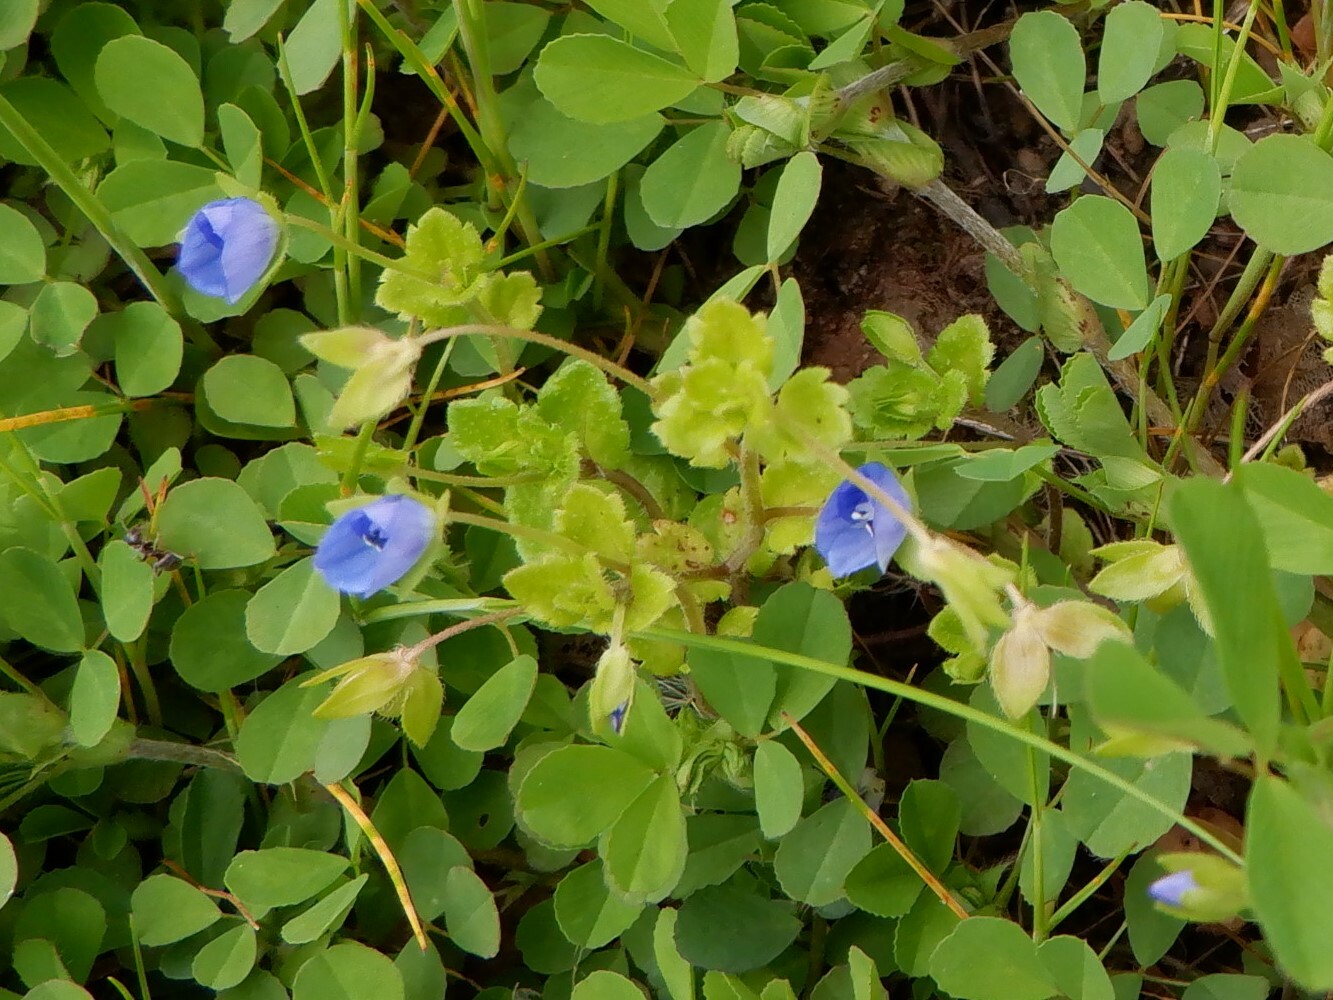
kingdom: Plantae
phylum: Tracheophyta
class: Magnoliopsida
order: Lamiales
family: Plantaginaceae
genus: Veronica
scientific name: Veronica persica
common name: Common field-speedwell
